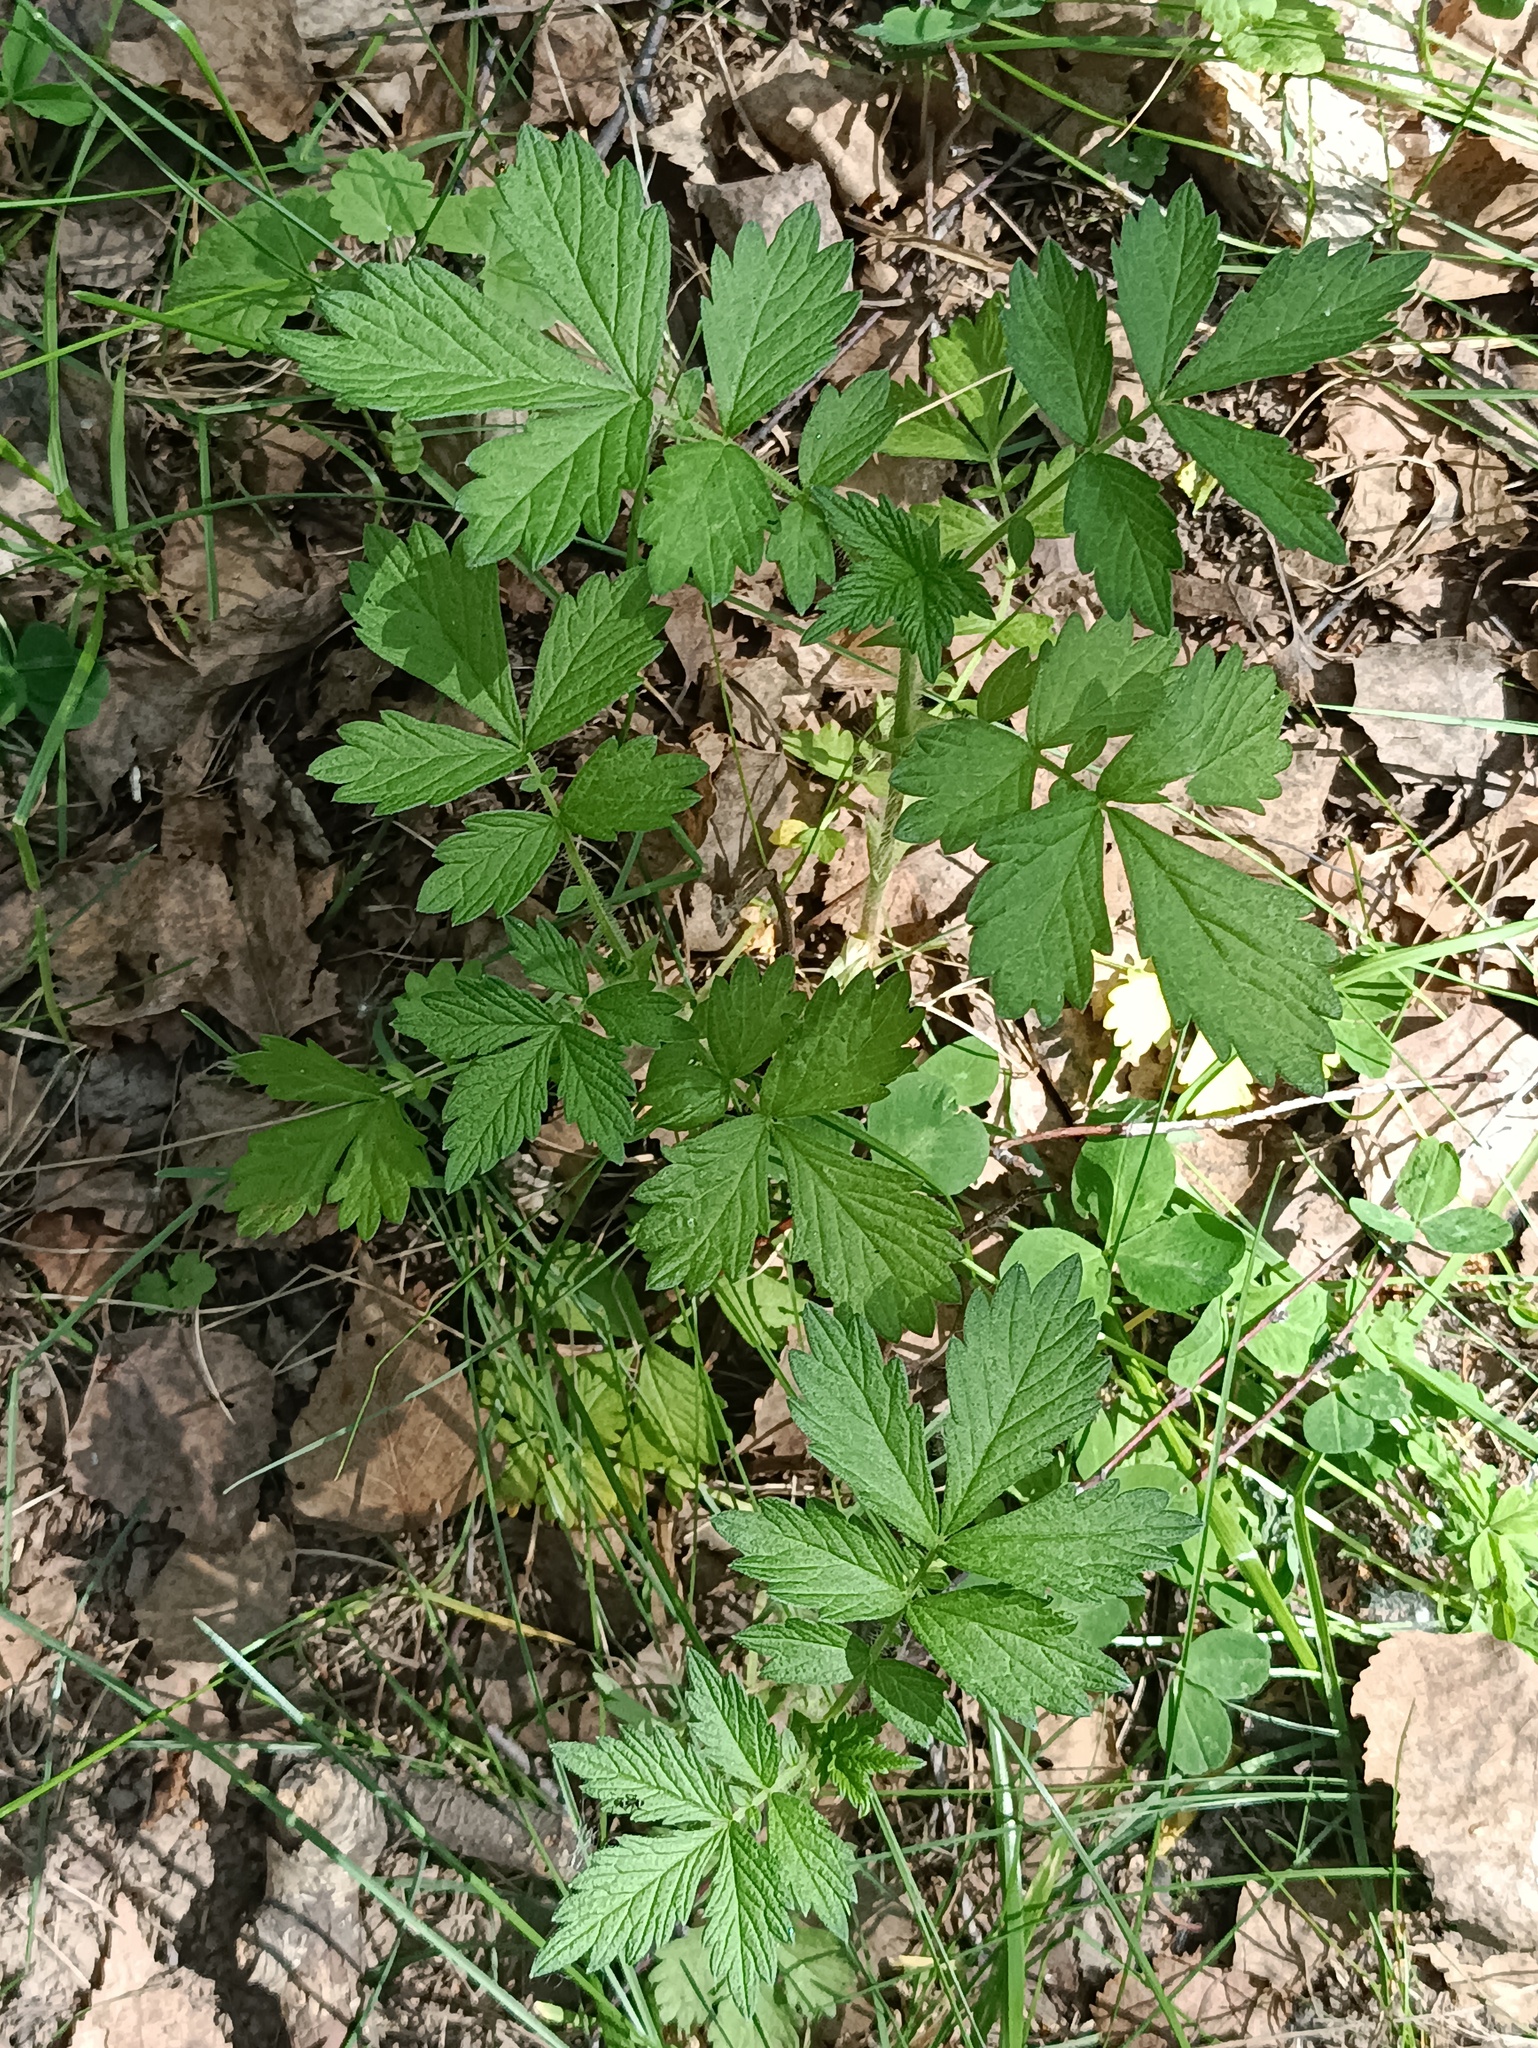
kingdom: Plantae
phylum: Tracheophyta
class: Magnoliopsida
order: Rosales
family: Rosaceae
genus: Agrimonia
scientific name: Agrimonia pilosa
